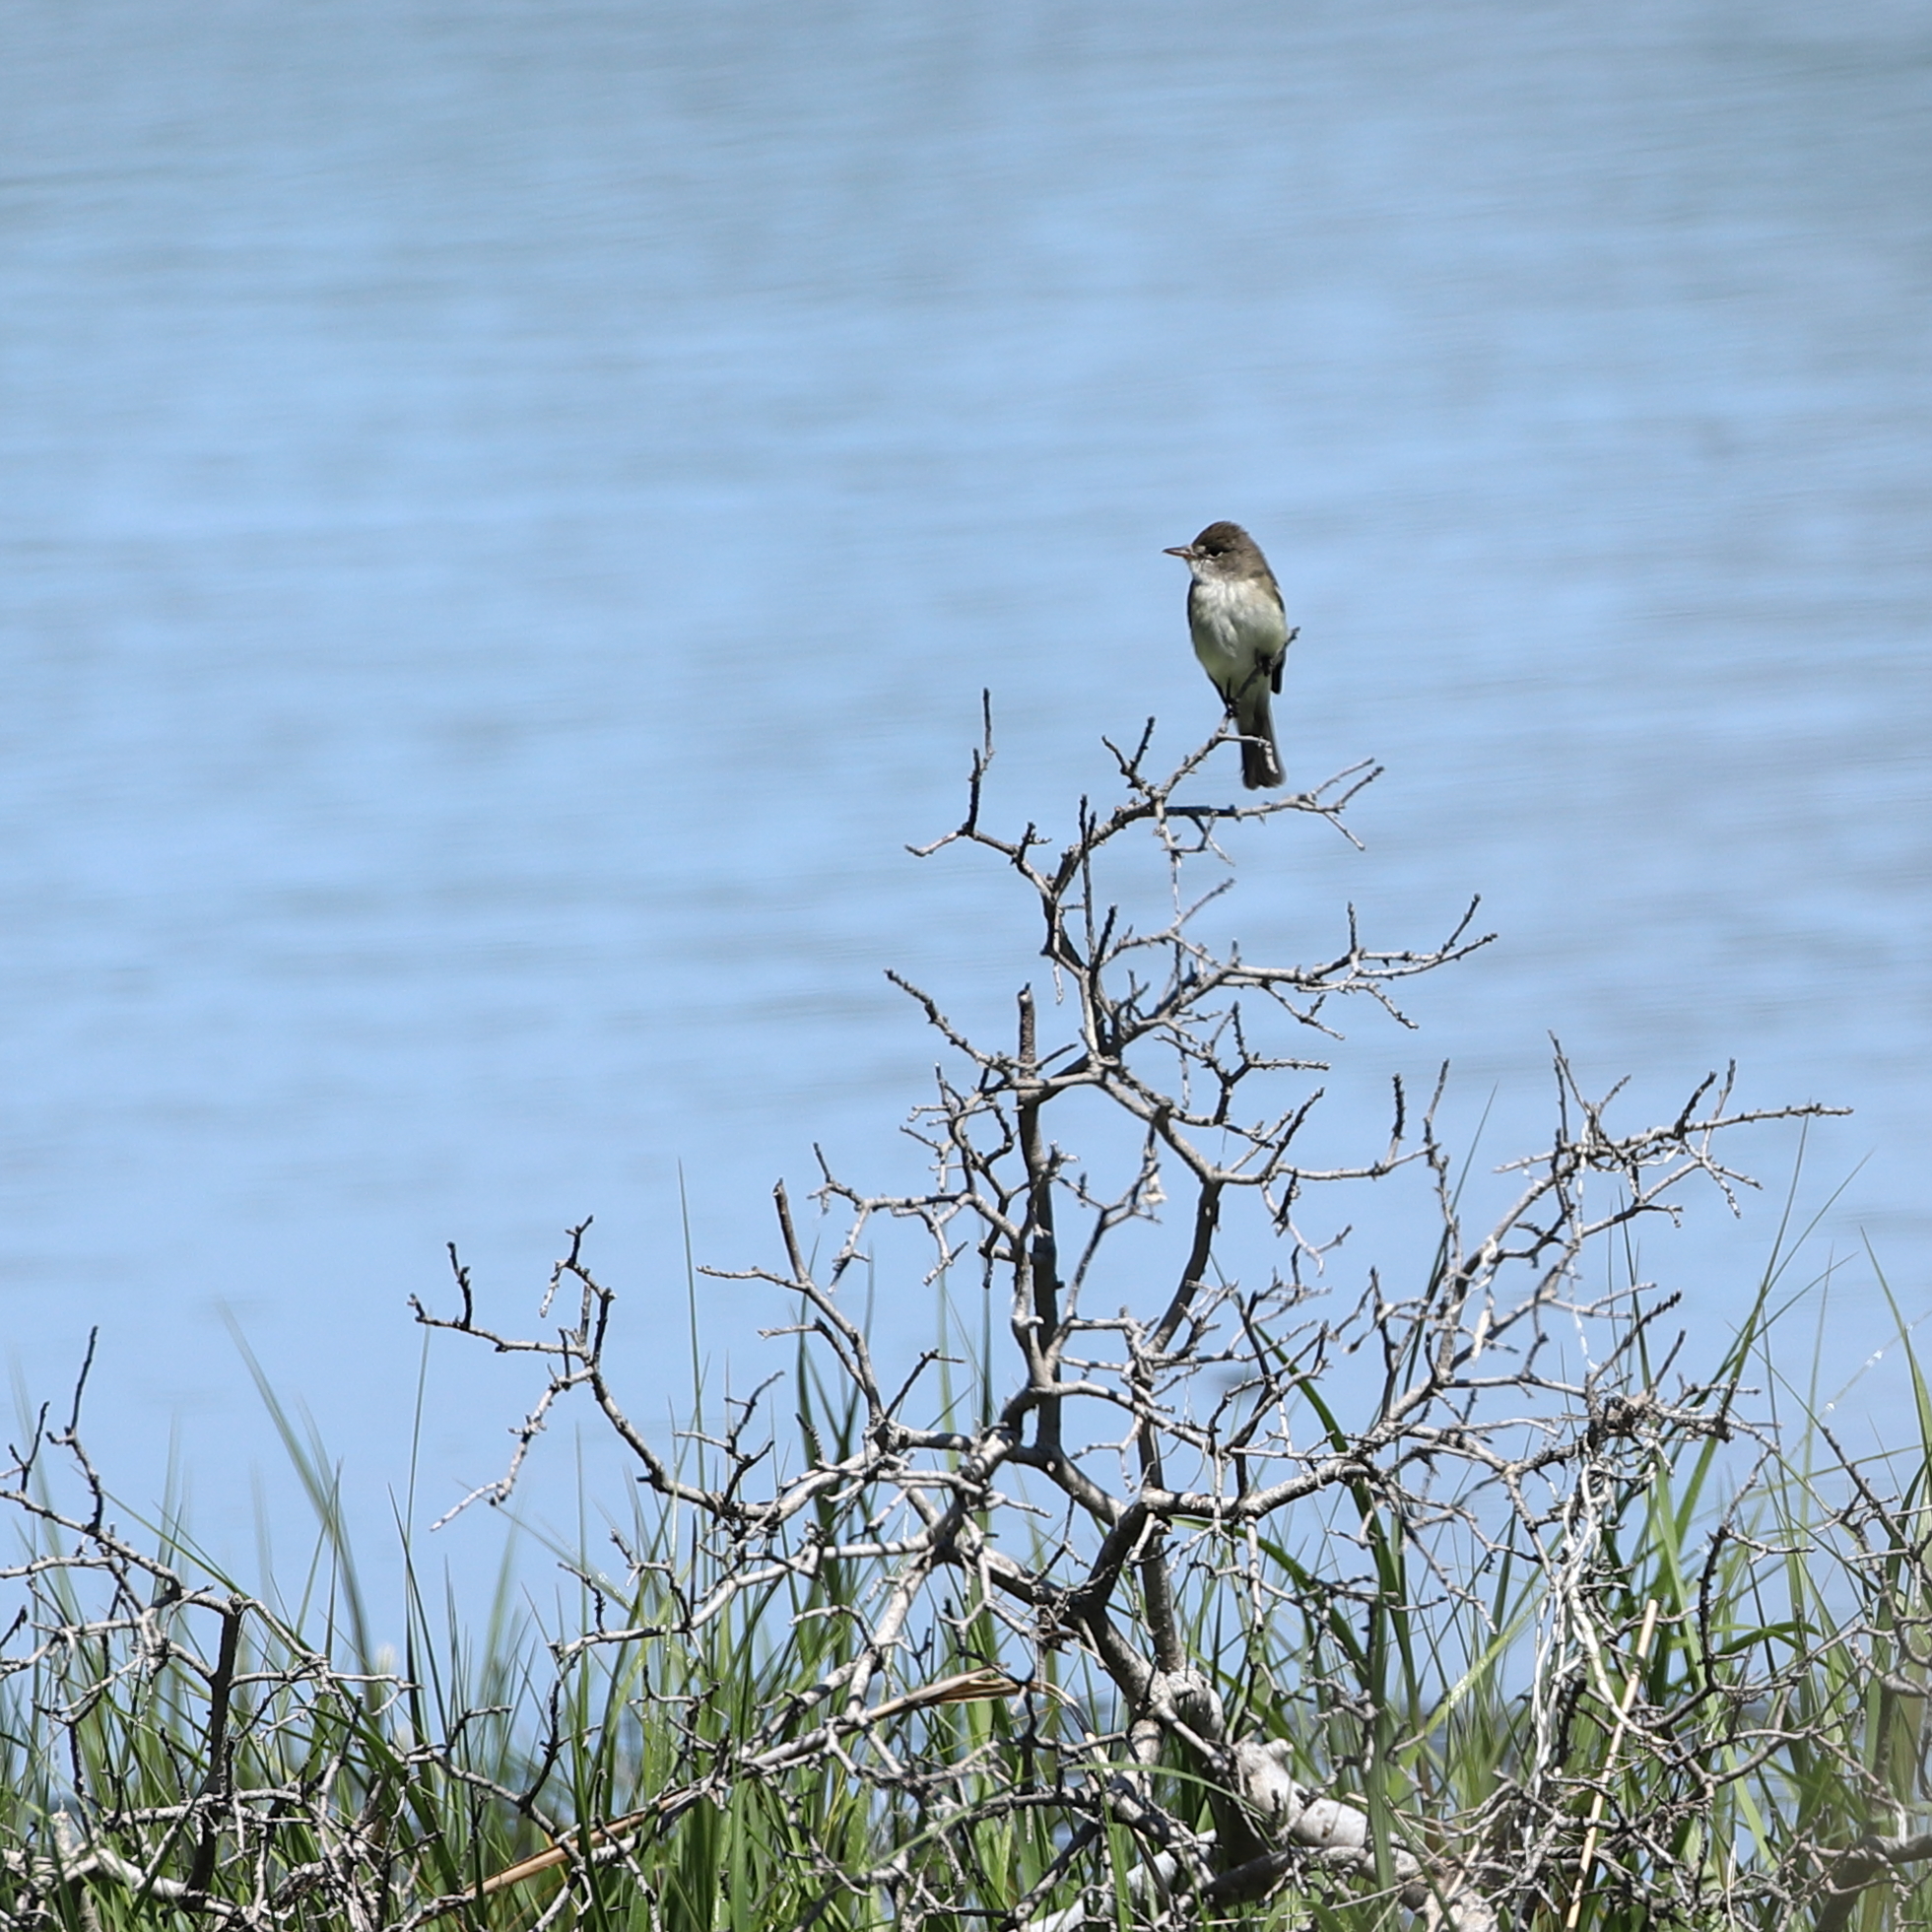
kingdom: Animalia
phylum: Chordata
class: Aves
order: Passeriformes
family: Tyrannidae
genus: Empidonax
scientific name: Empidonax
